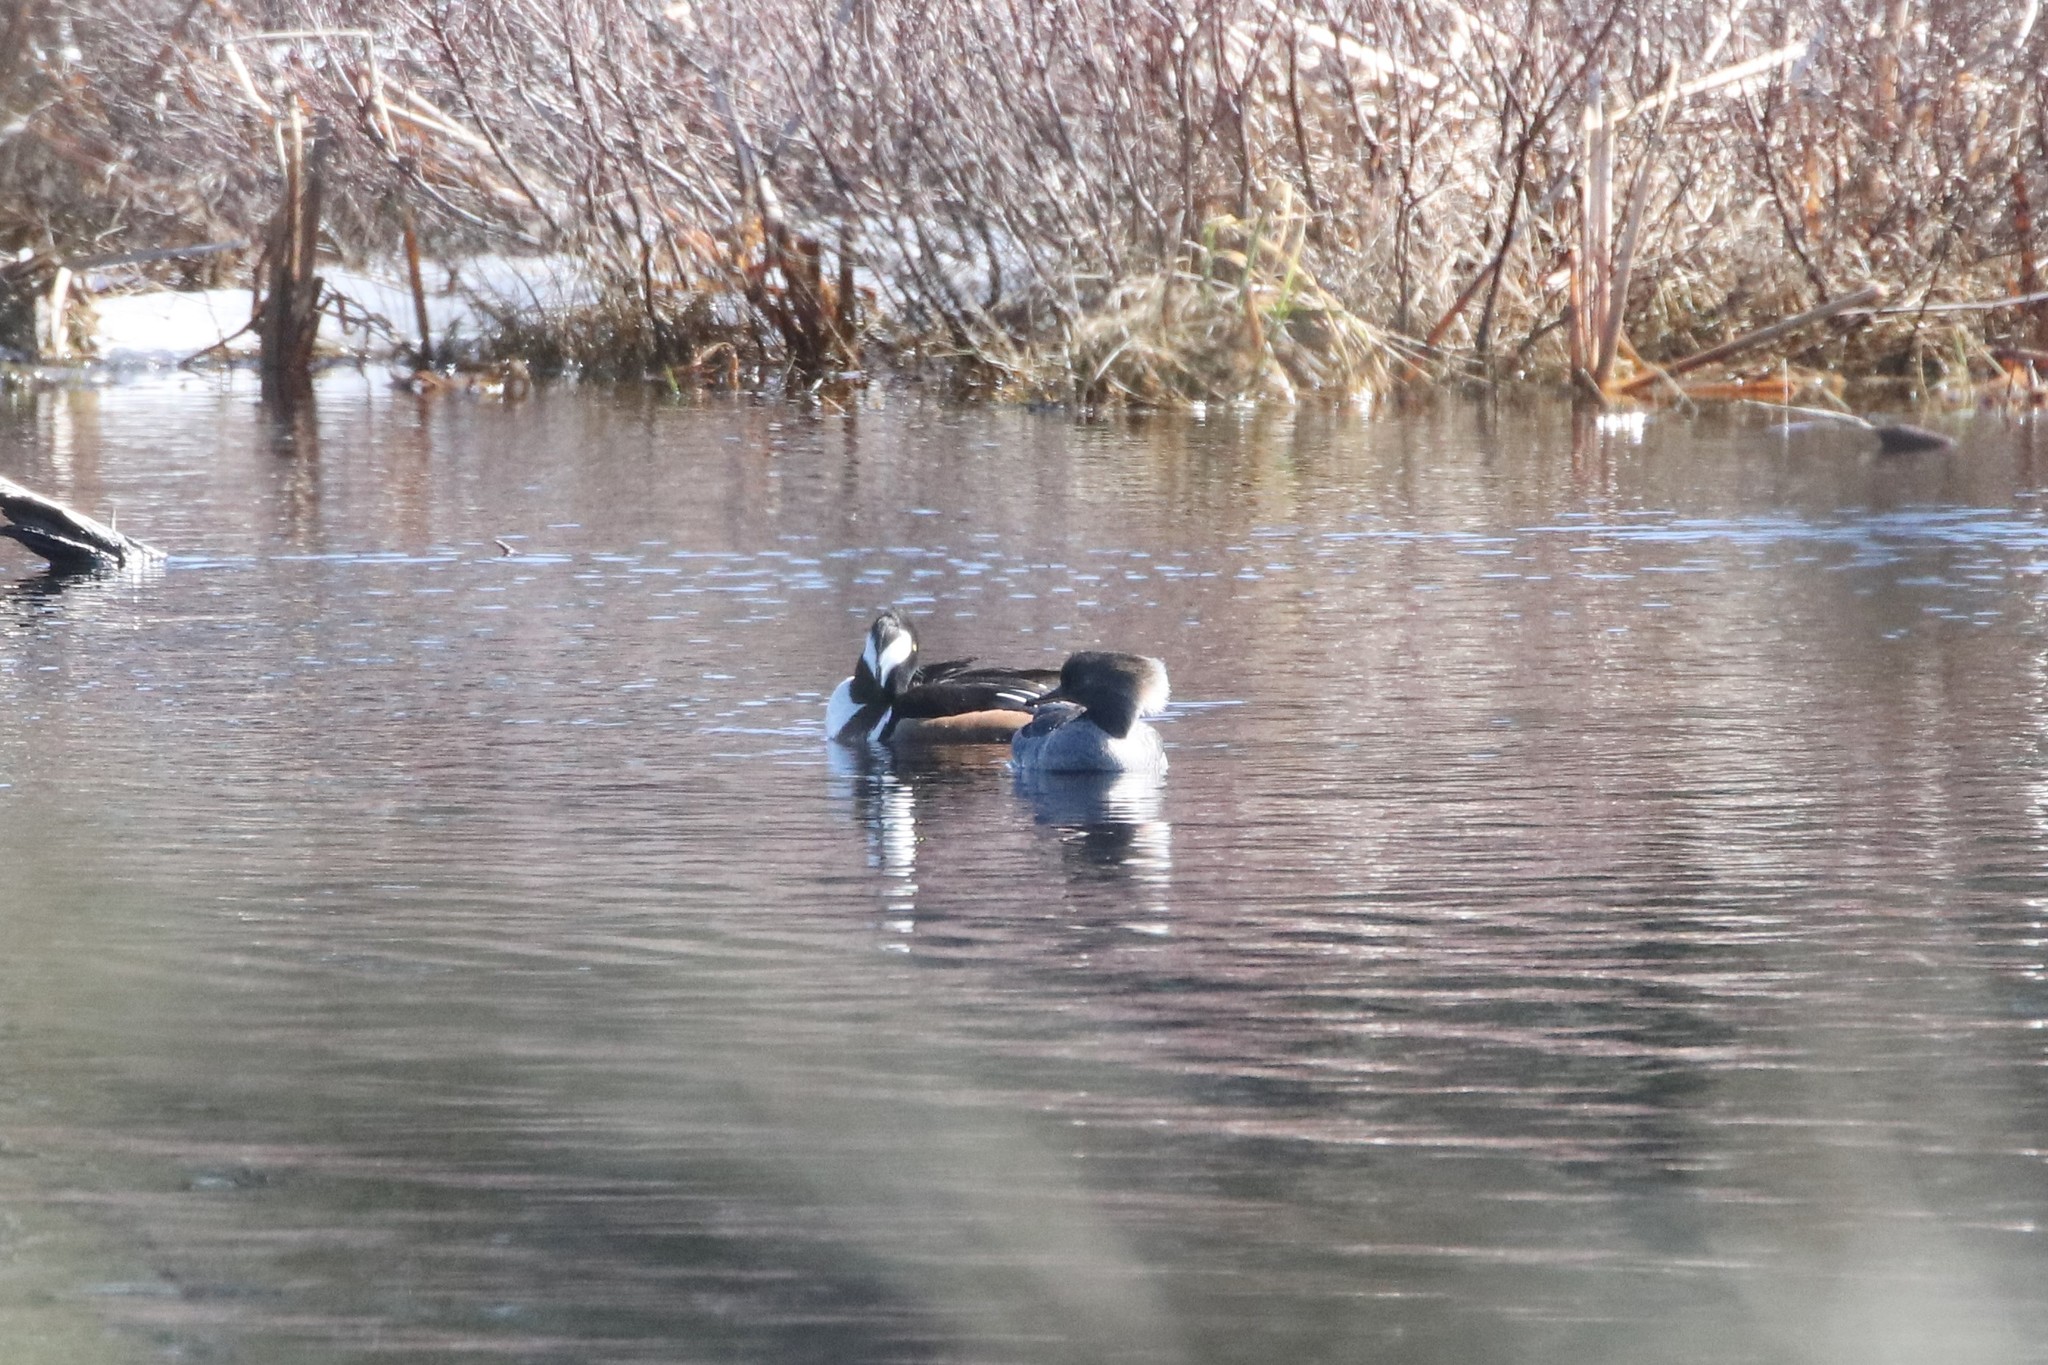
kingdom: Animalia
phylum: Chordata
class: Aves
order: Anseriformes
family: Anatidae
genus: Lophodytes
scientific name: Lophodytes cucullatus
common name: Hooded merganser
